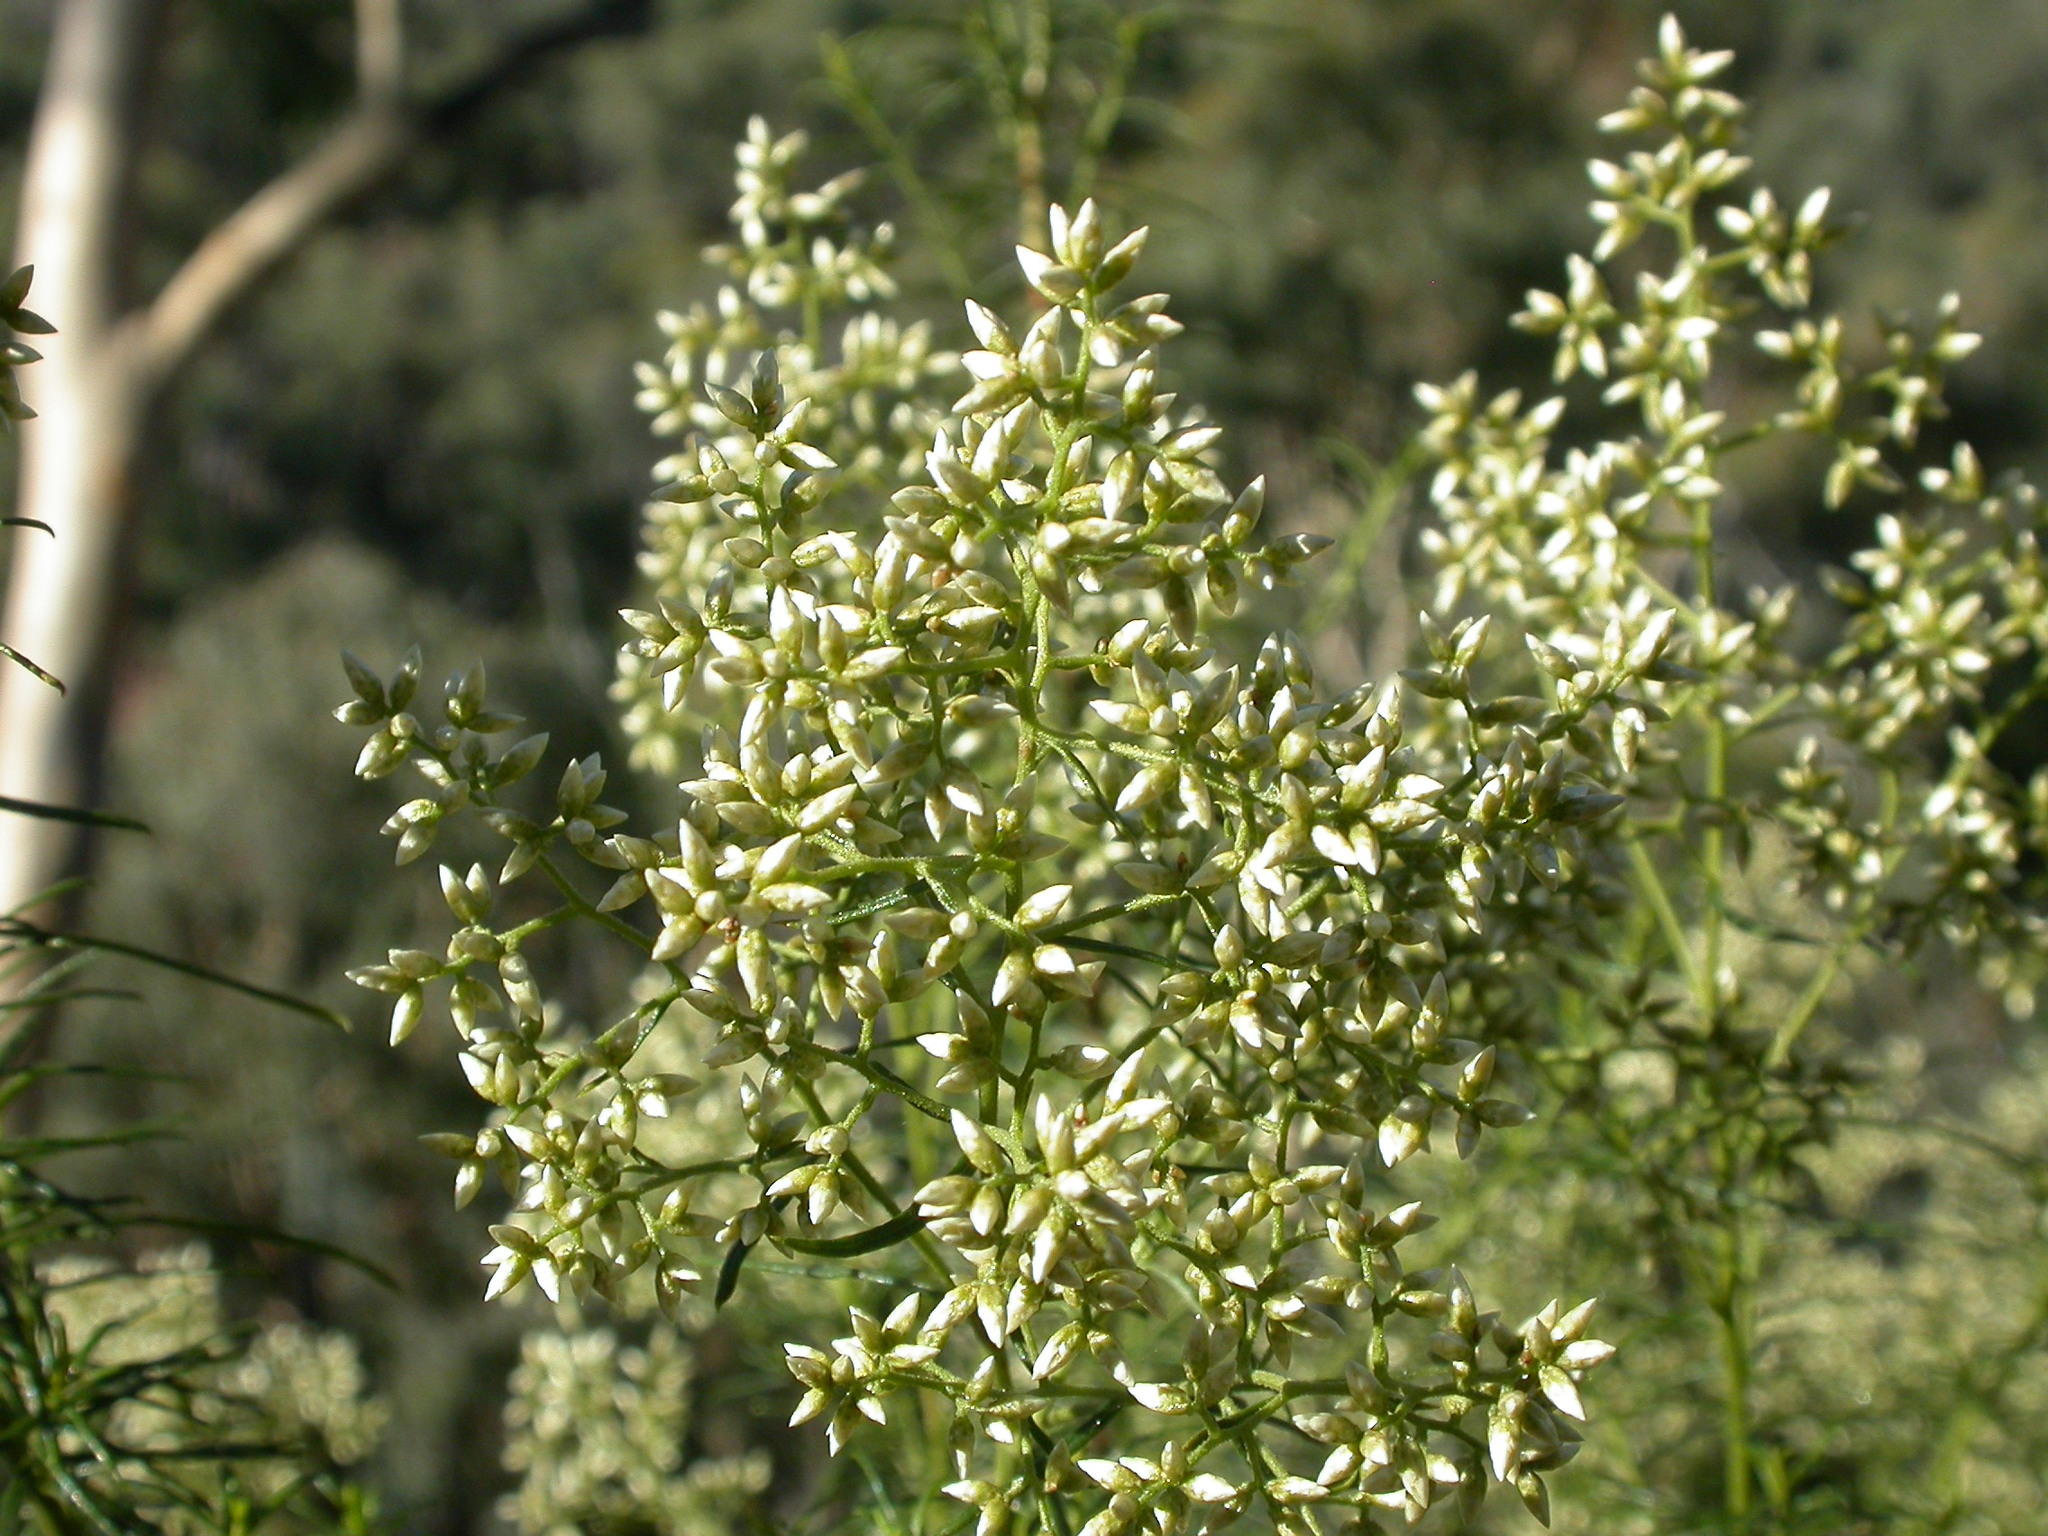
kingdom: Plantae
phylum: Tracheophyta
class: Magnoliopsida
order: Asterales
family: Asteraceae
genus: Cassinia
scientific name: Cassinia quinquefaria
